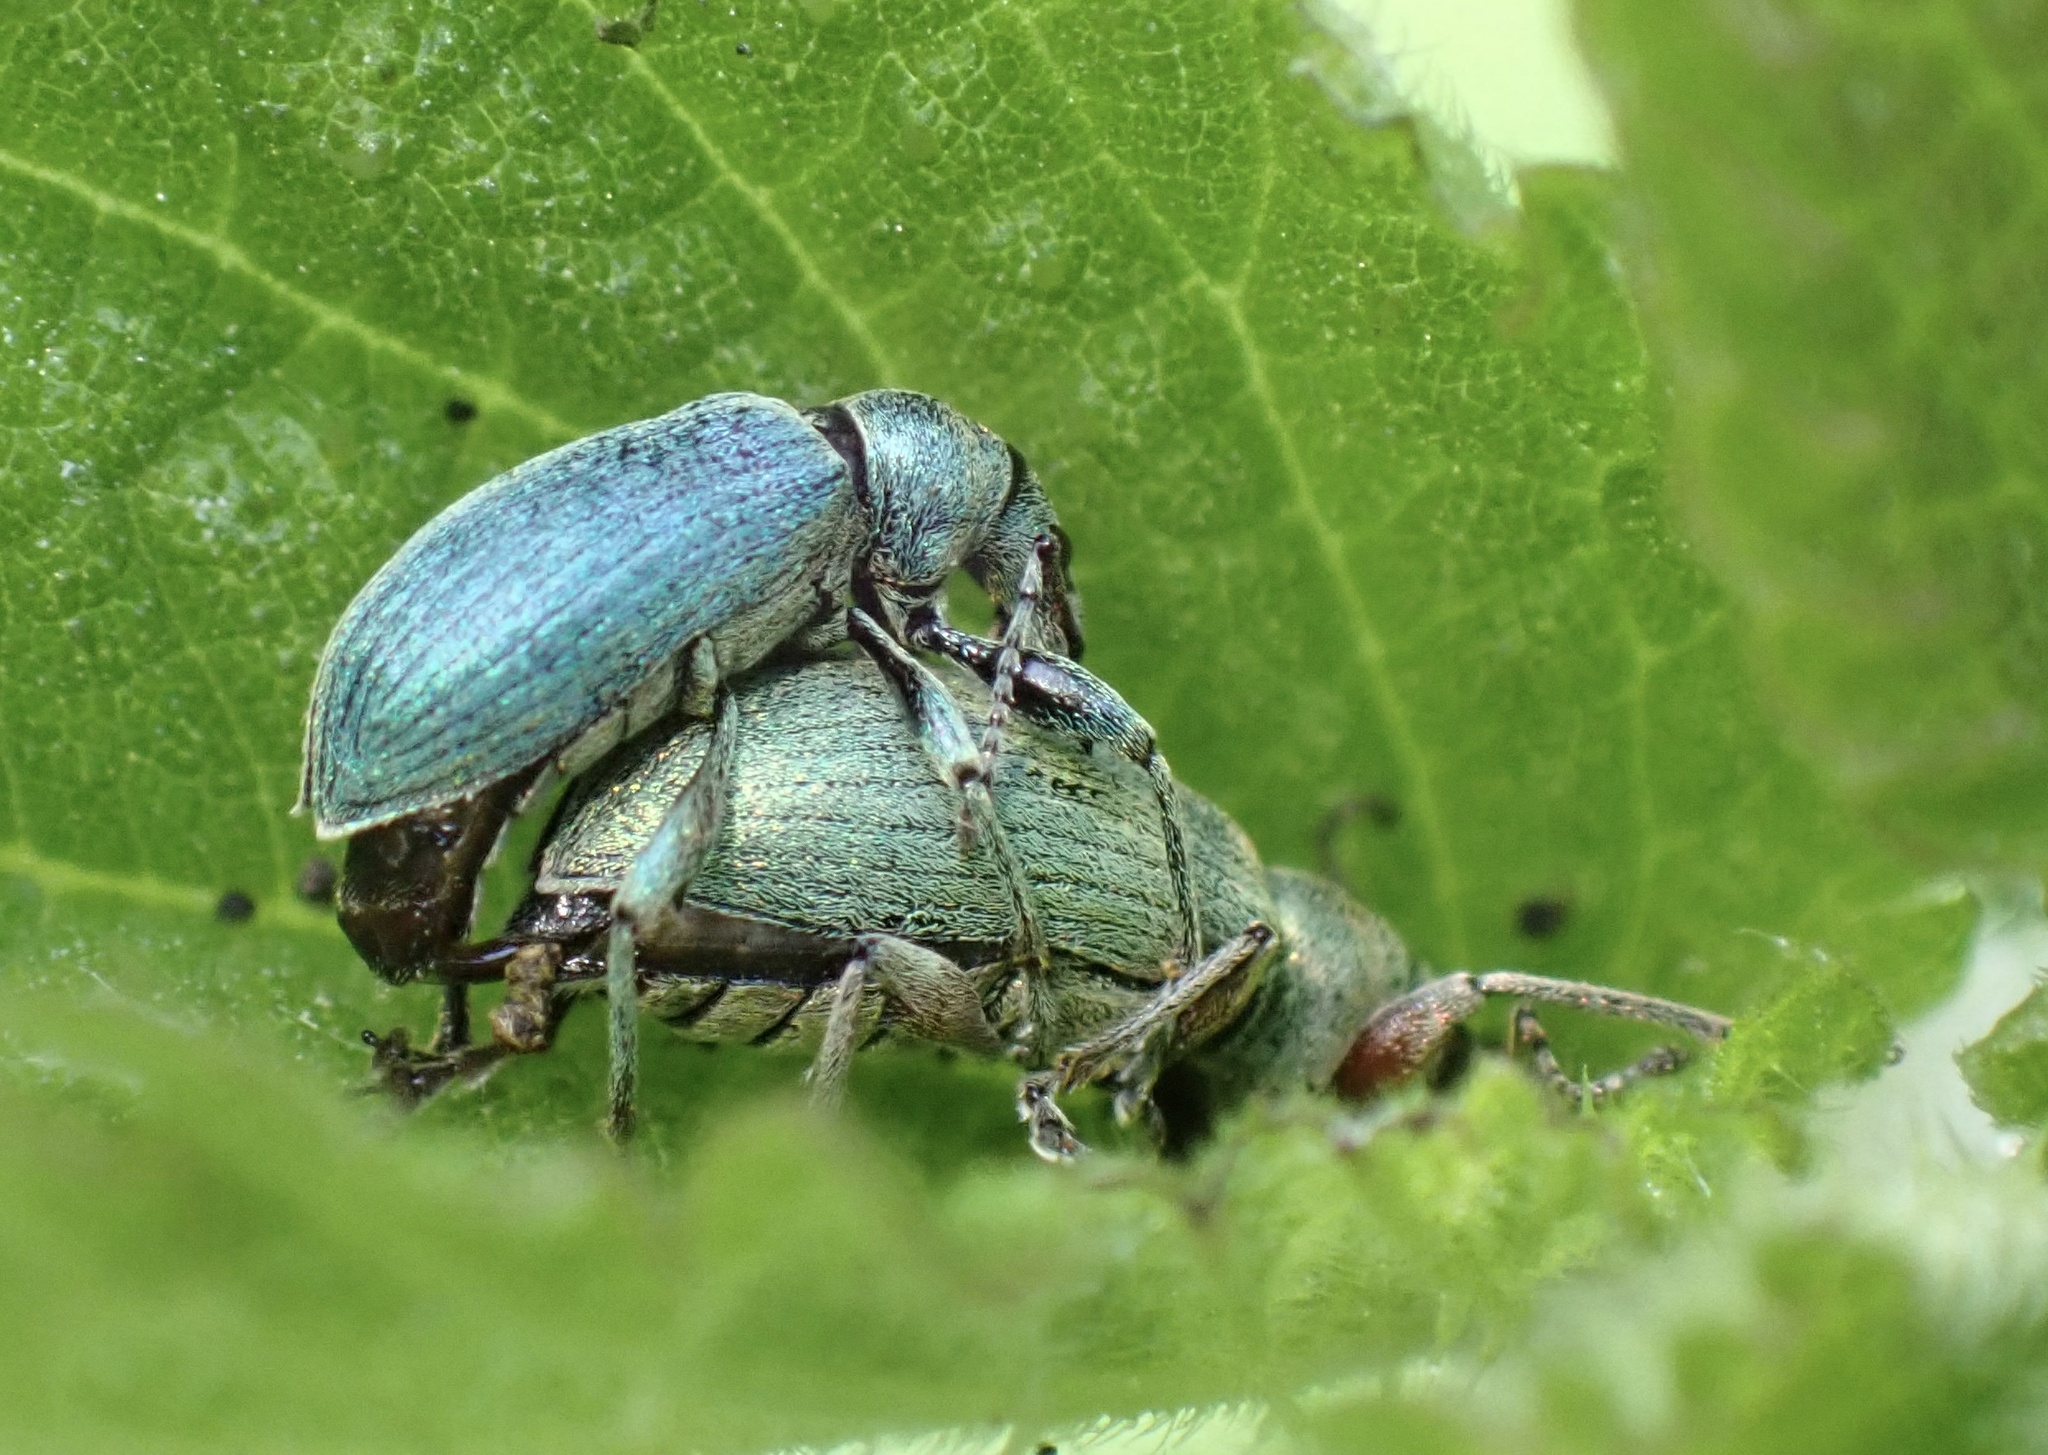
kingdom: Animalia
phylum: Arthropoda
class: Insecta
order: Coleoptera
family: Curculionidae
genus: Phyllobius
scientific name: Phyllobius pomaceus
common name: Green nettle weevil
